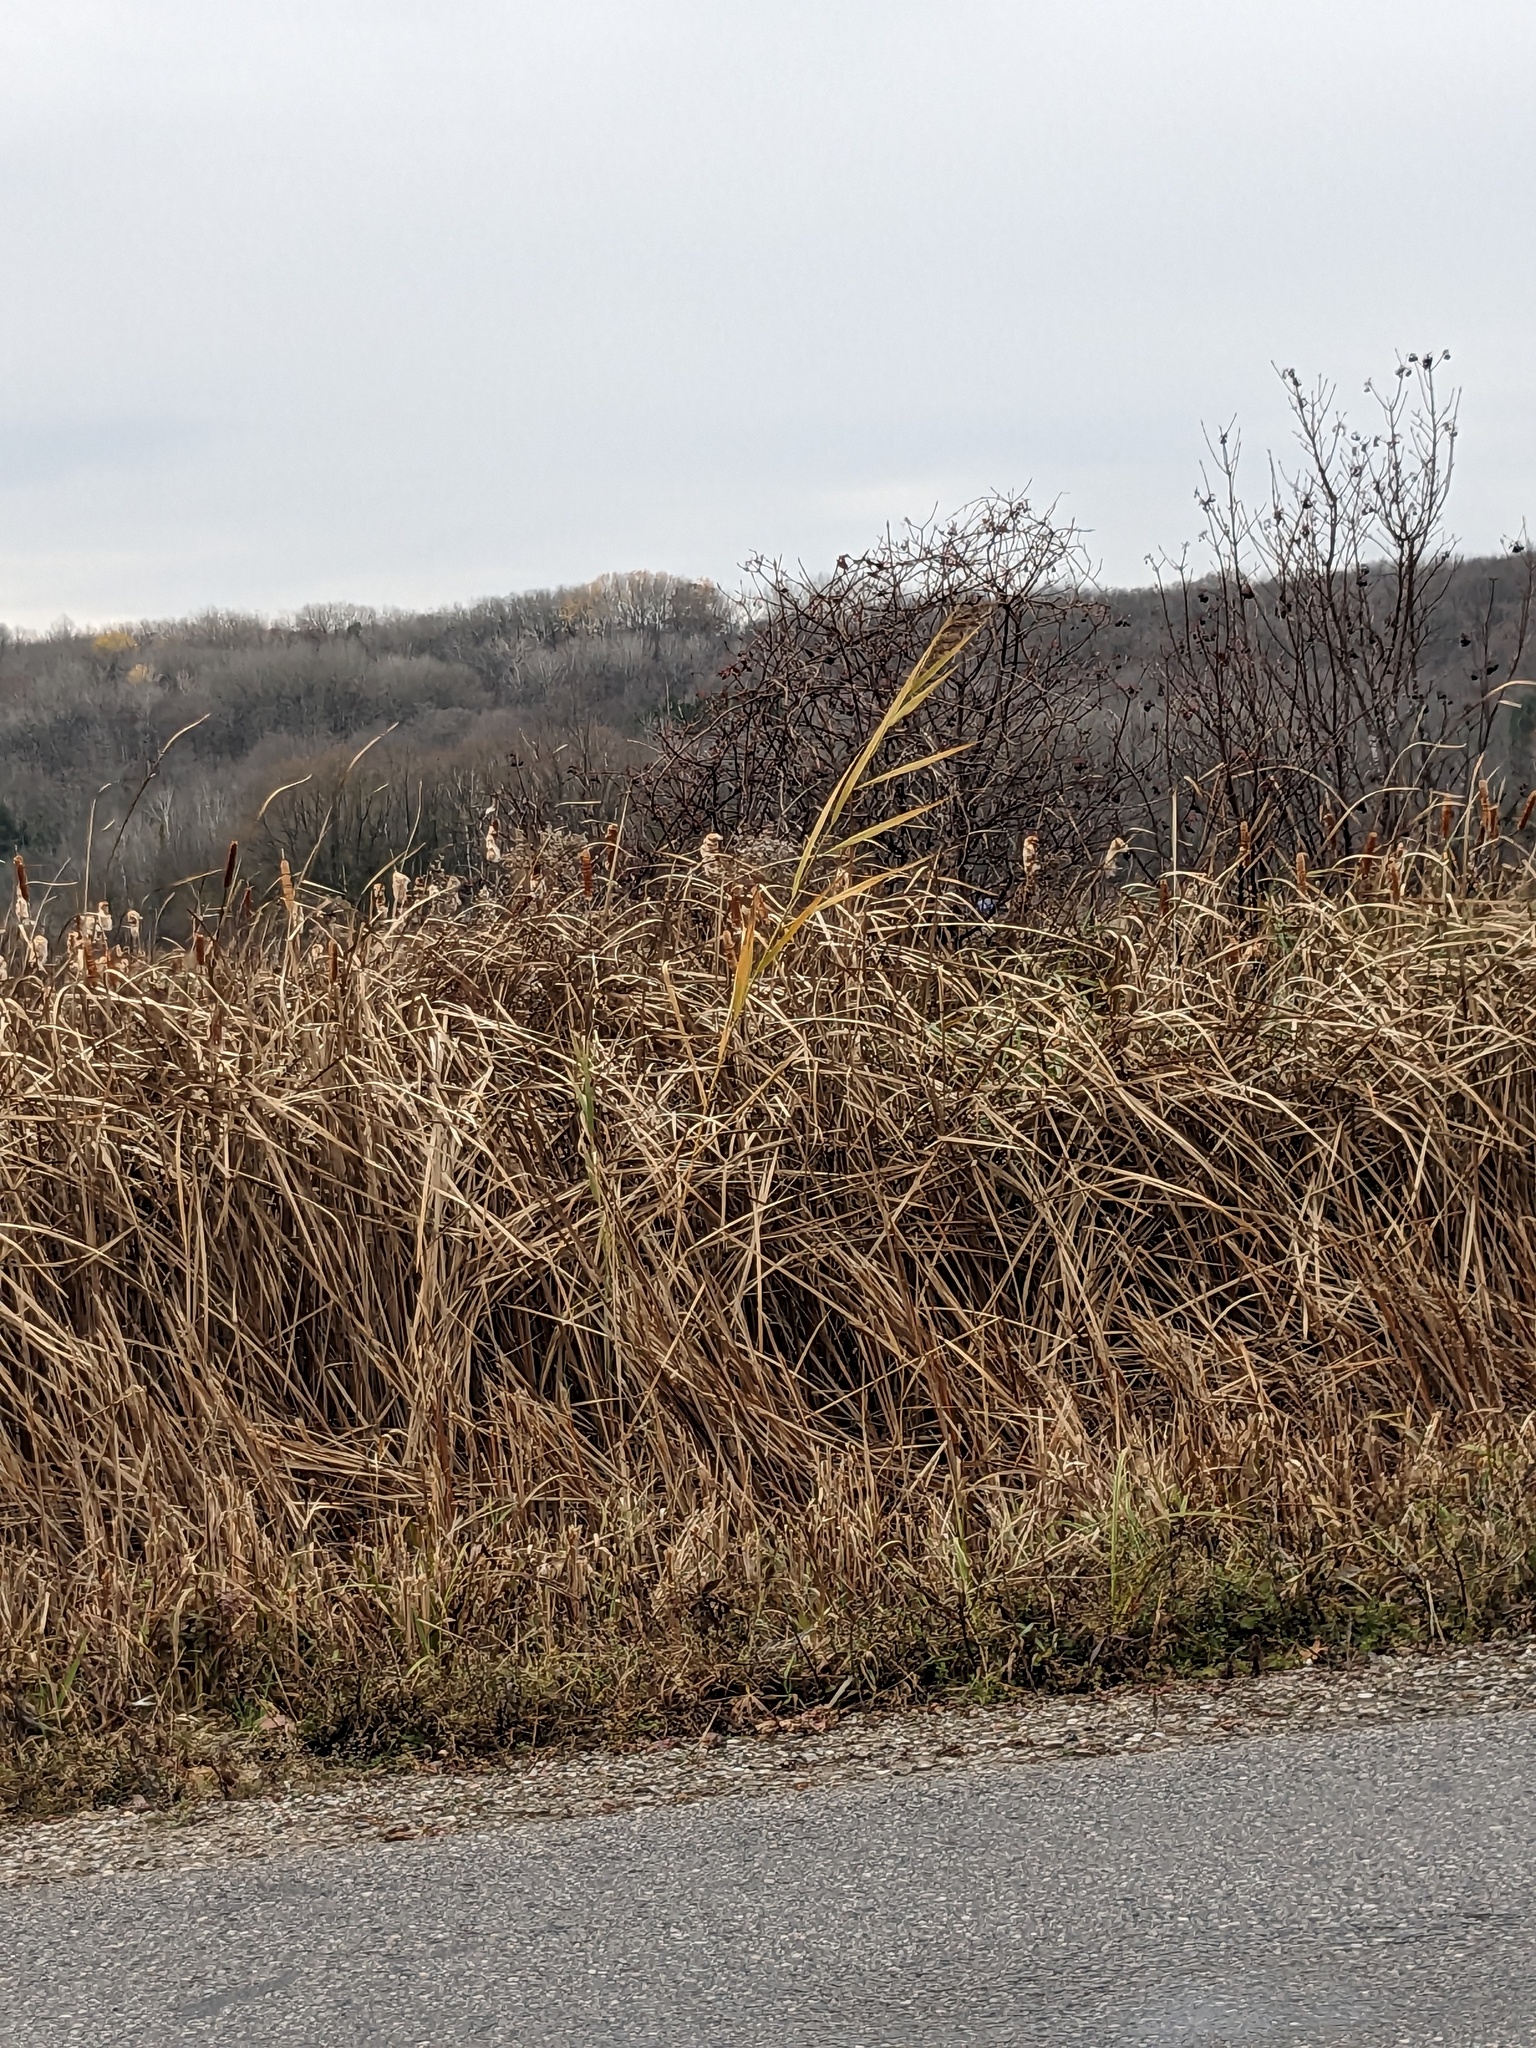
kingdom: Plantae
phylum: Tracheophyta
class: Liliopsida
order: Poales
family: Poaceae
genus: Phragmites
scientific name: Phragmites australis
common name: Common reed
